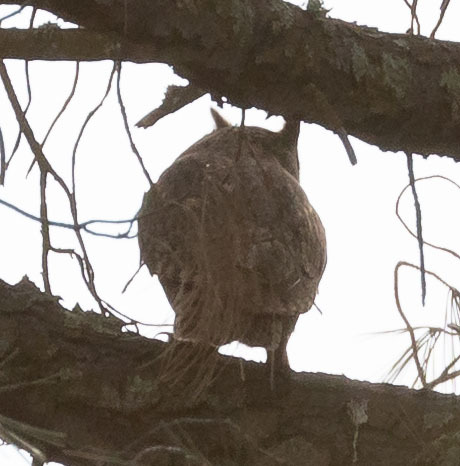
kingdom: Animalia
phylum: Chordata
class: Aves
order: Strigiformes
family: Strigidae
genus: Bubo
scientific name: Bubo virginianus
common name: Great horned owl
